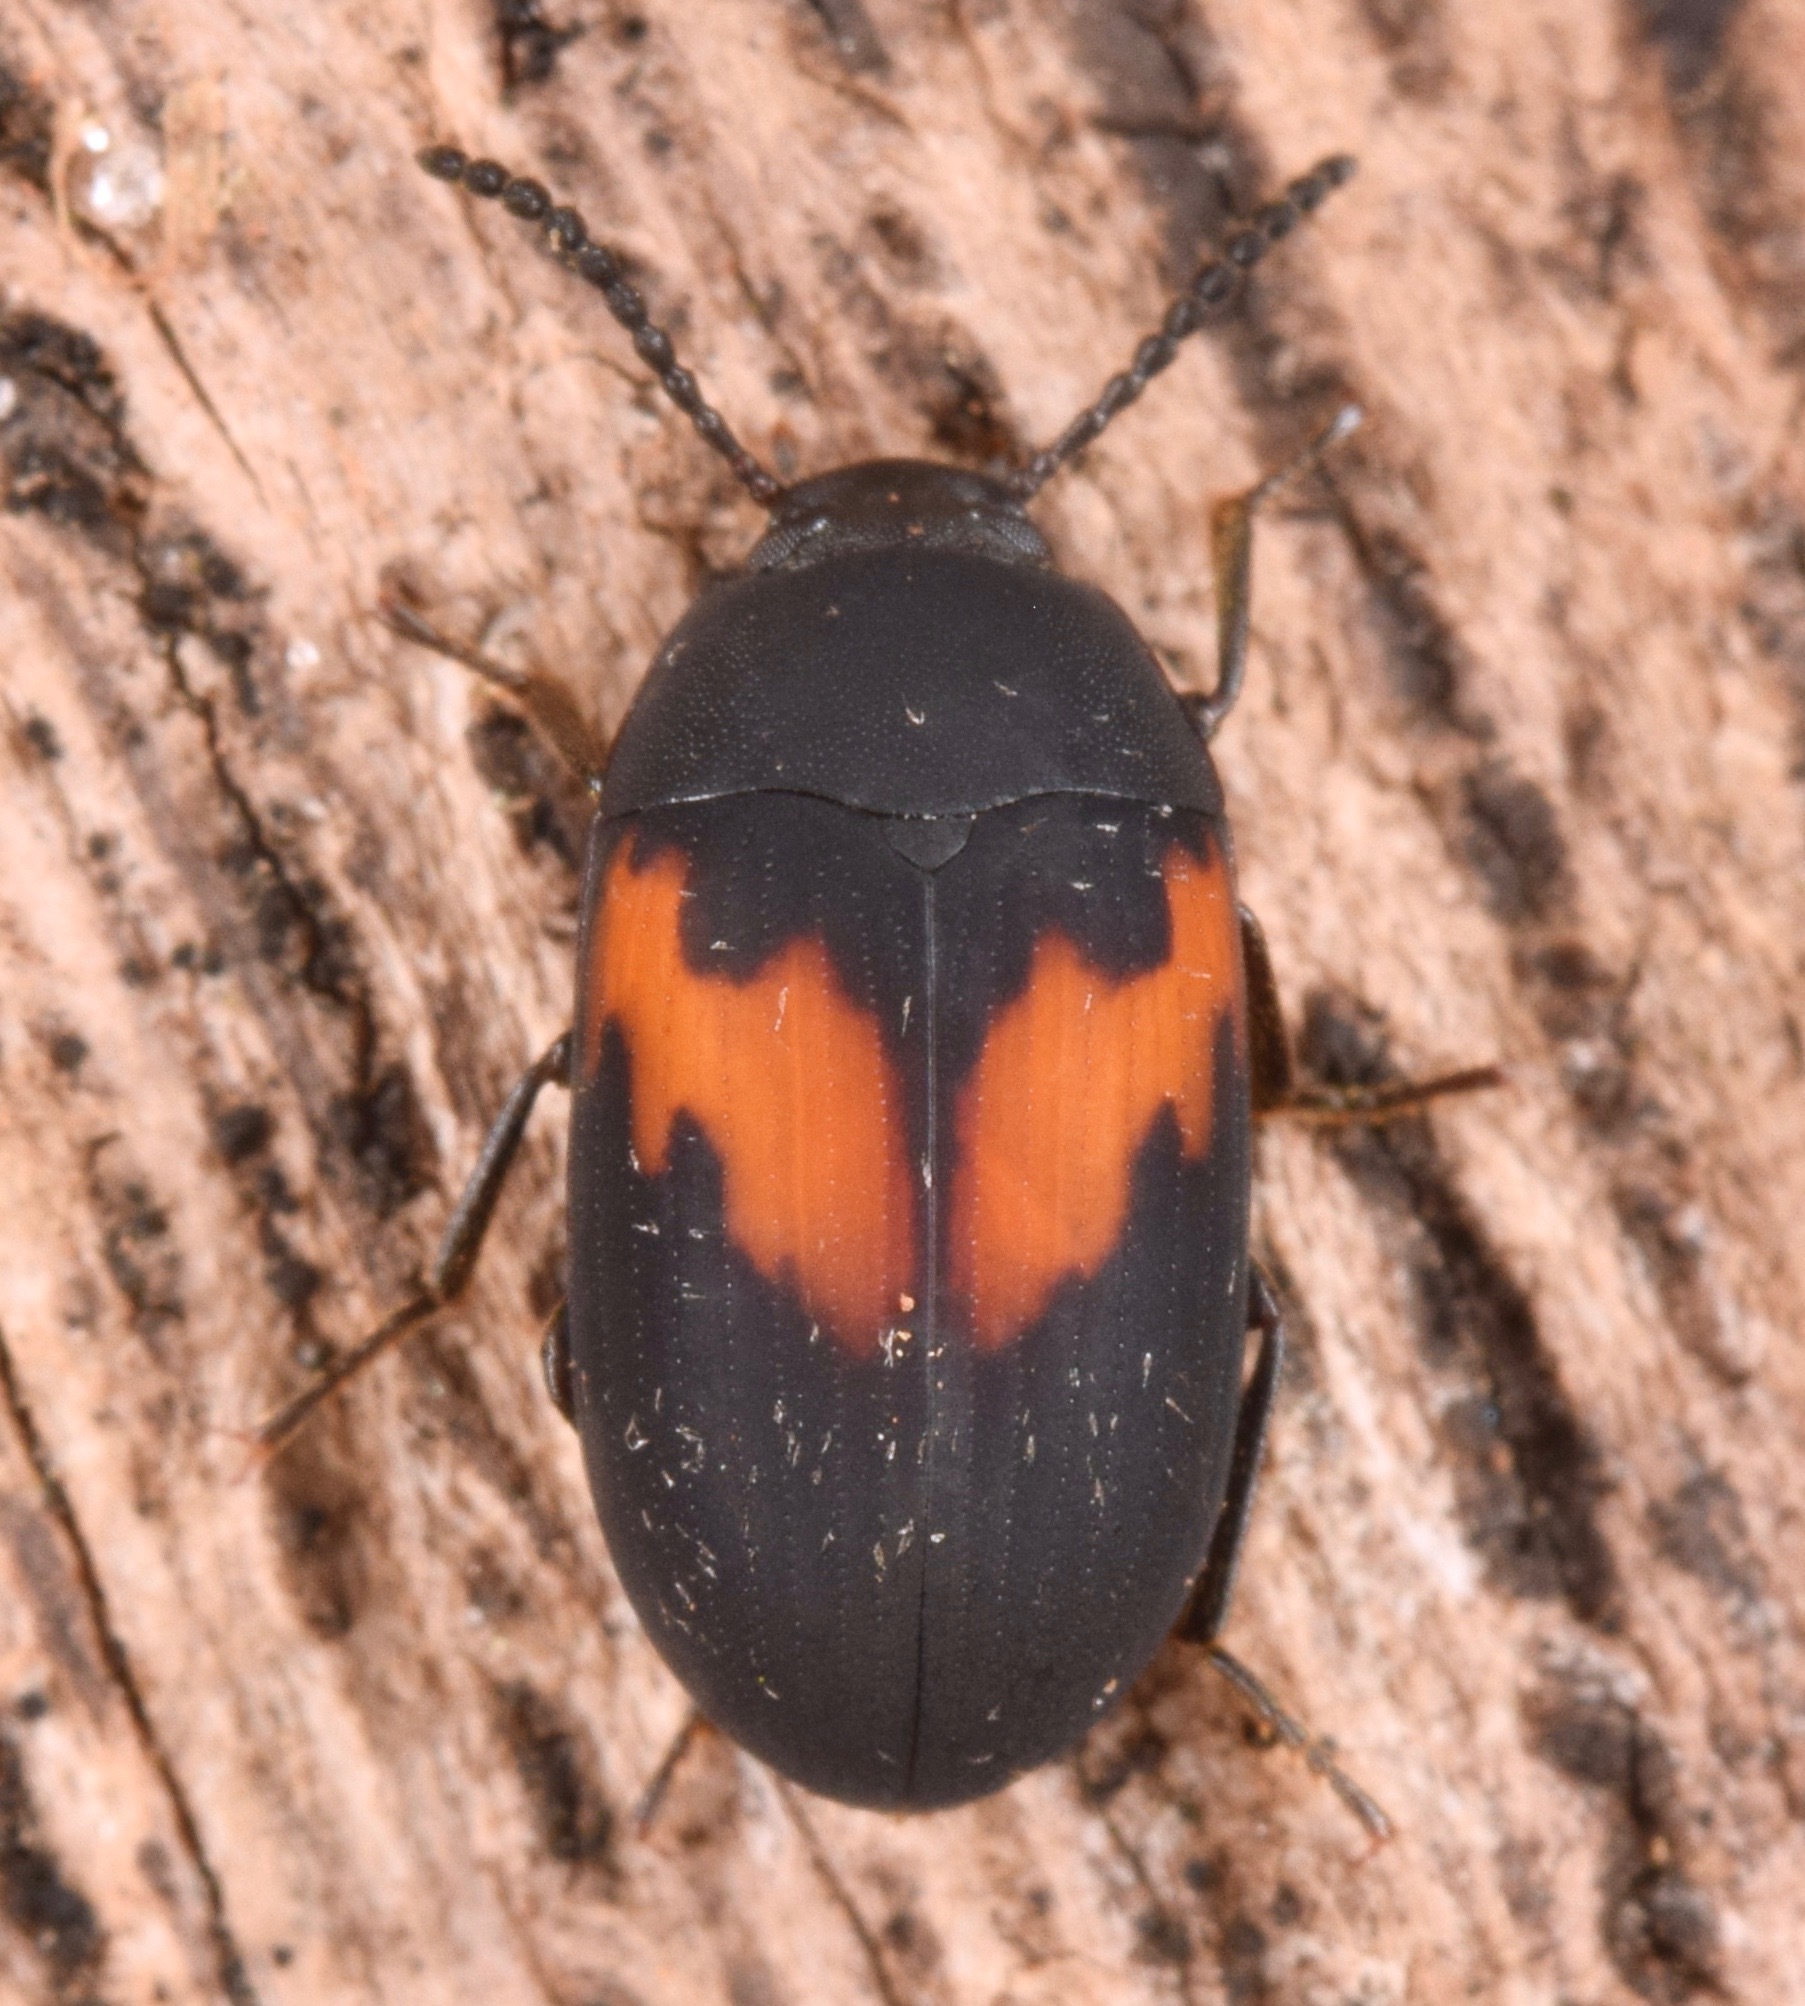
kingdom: Animalia
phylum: Arthropoda
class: Insecta
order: Coleoptera
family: Tenebrionidae
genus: Platydema
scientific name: Platydema elliptica
